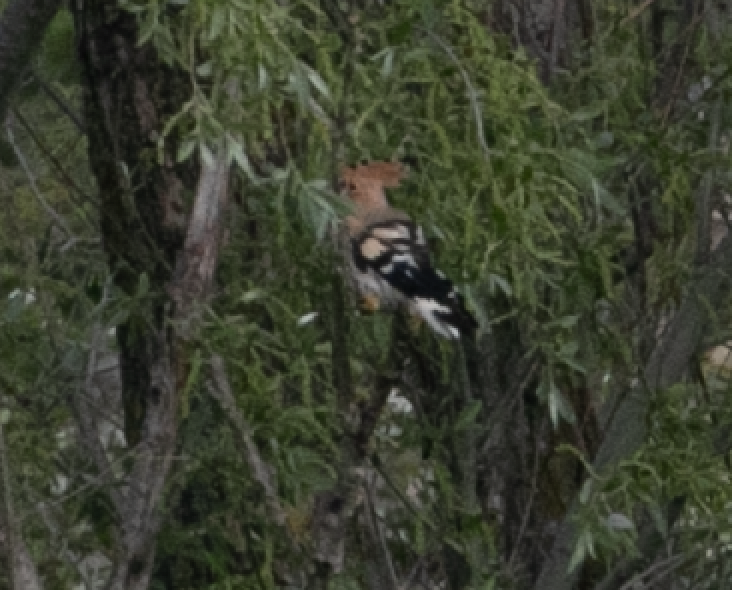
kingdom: Animalia
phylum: Chordata
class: Aves
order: Bucerotiformes
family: Upupidae
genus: Upupa
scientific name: Upupa epops
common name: Eurasian hoopoe
